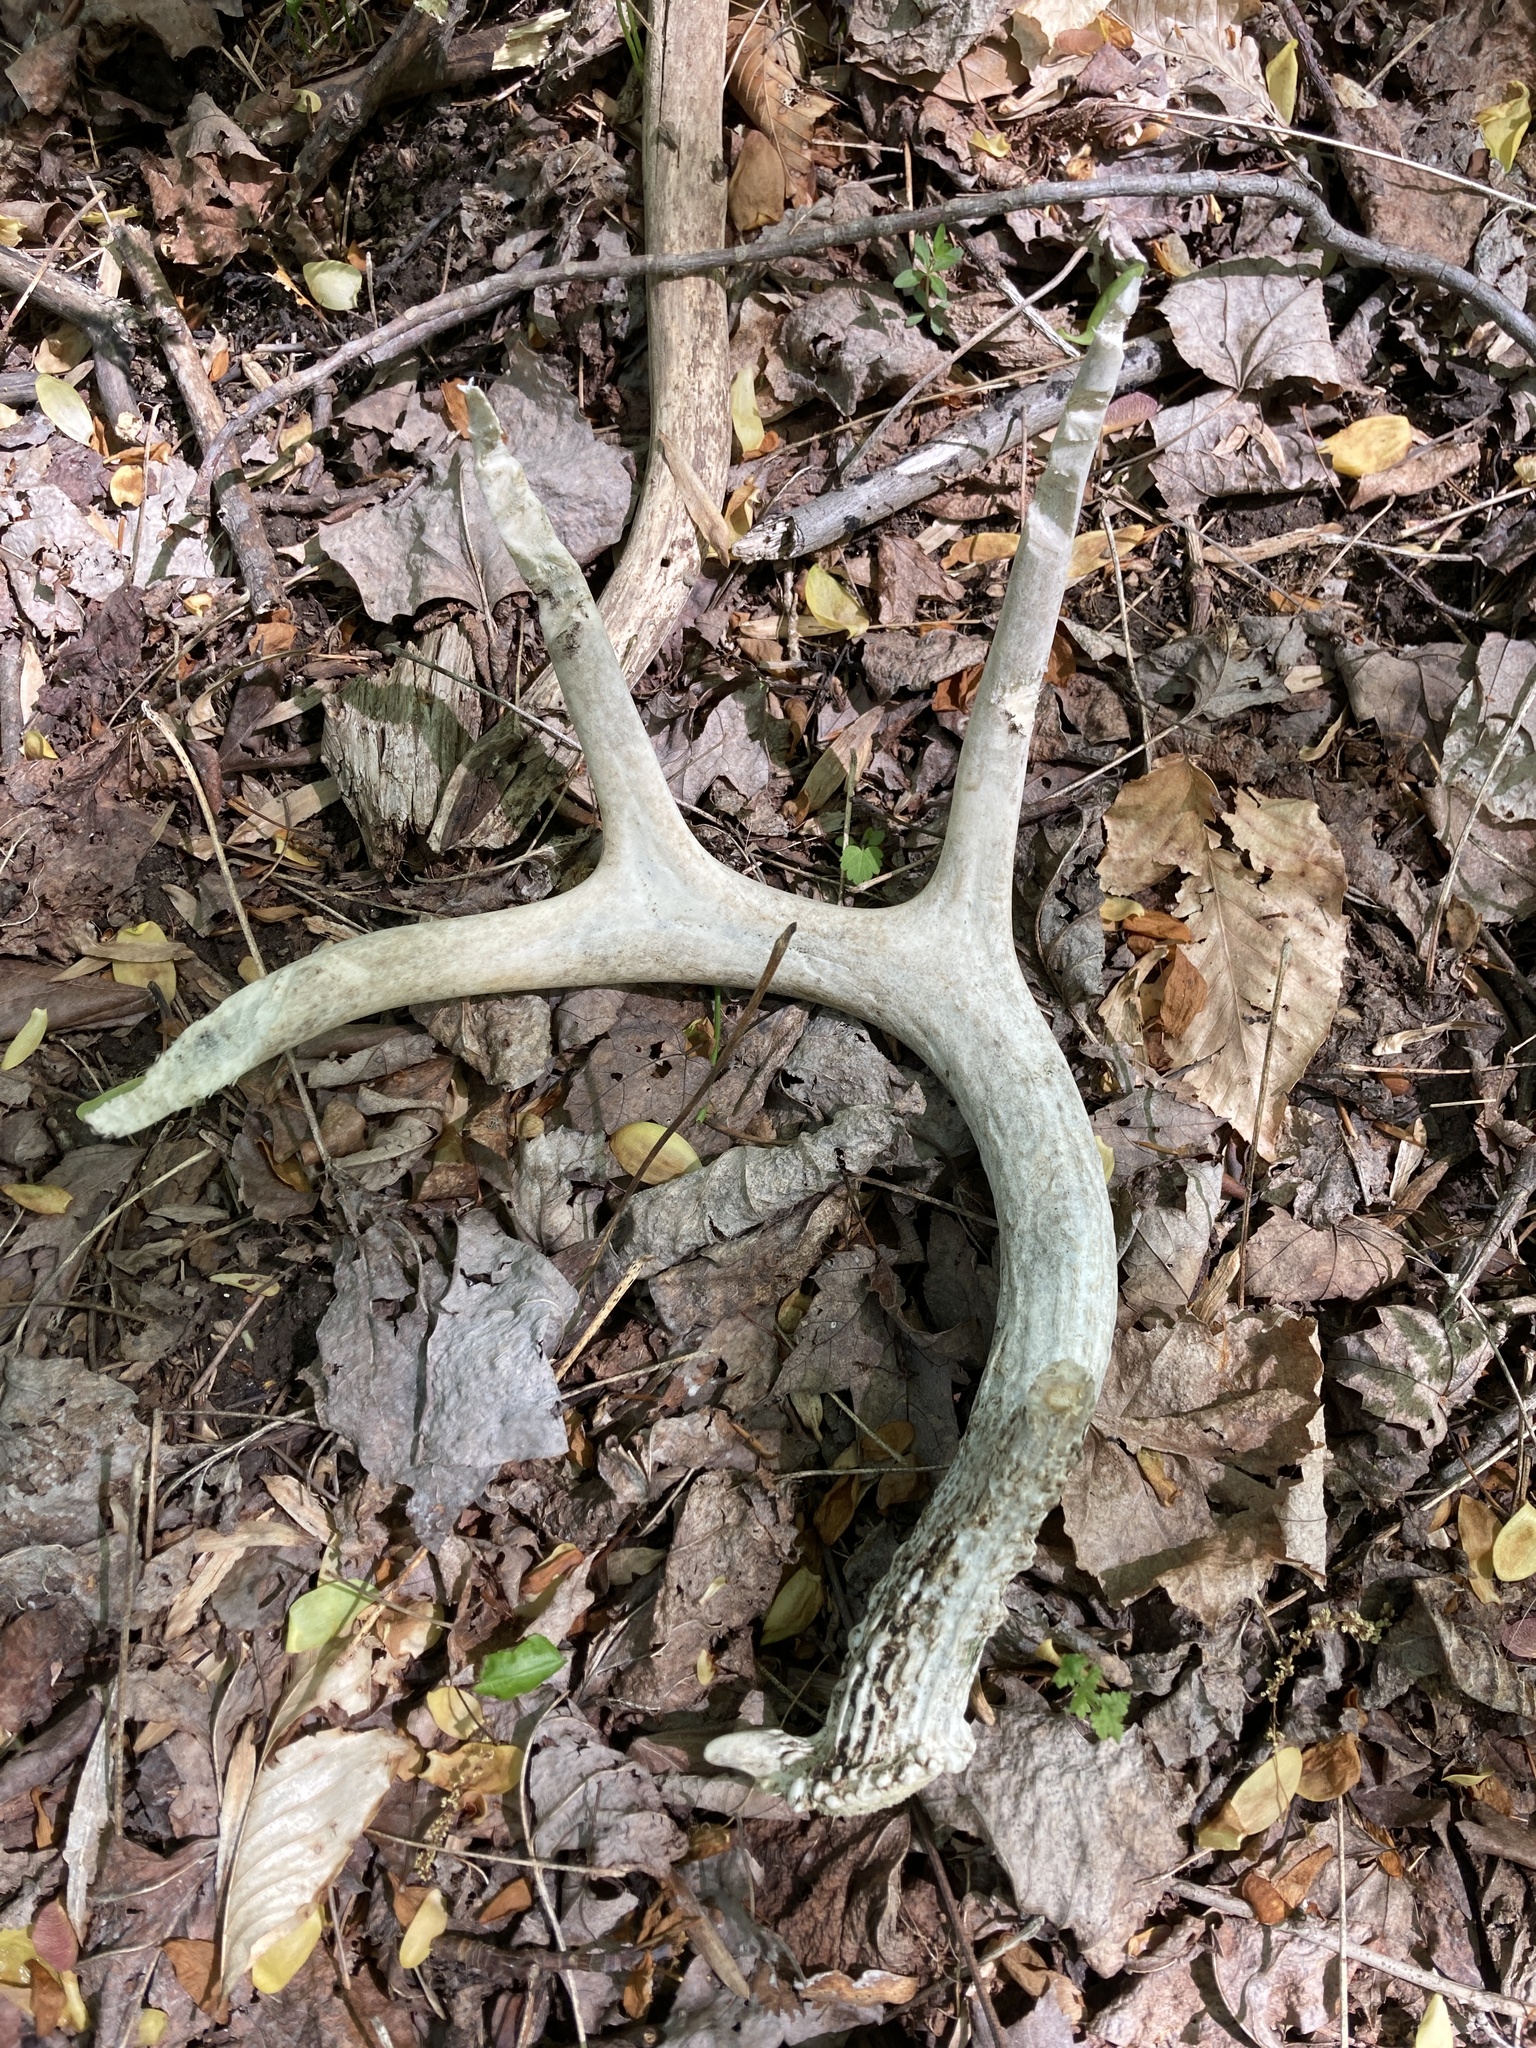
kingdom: Animalia
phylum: Chordata
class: Mammalia
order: Artiodactyla
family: Cervidae
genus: Odocoileus
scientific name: Odocoileus virginianus
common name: White-tailed deer
